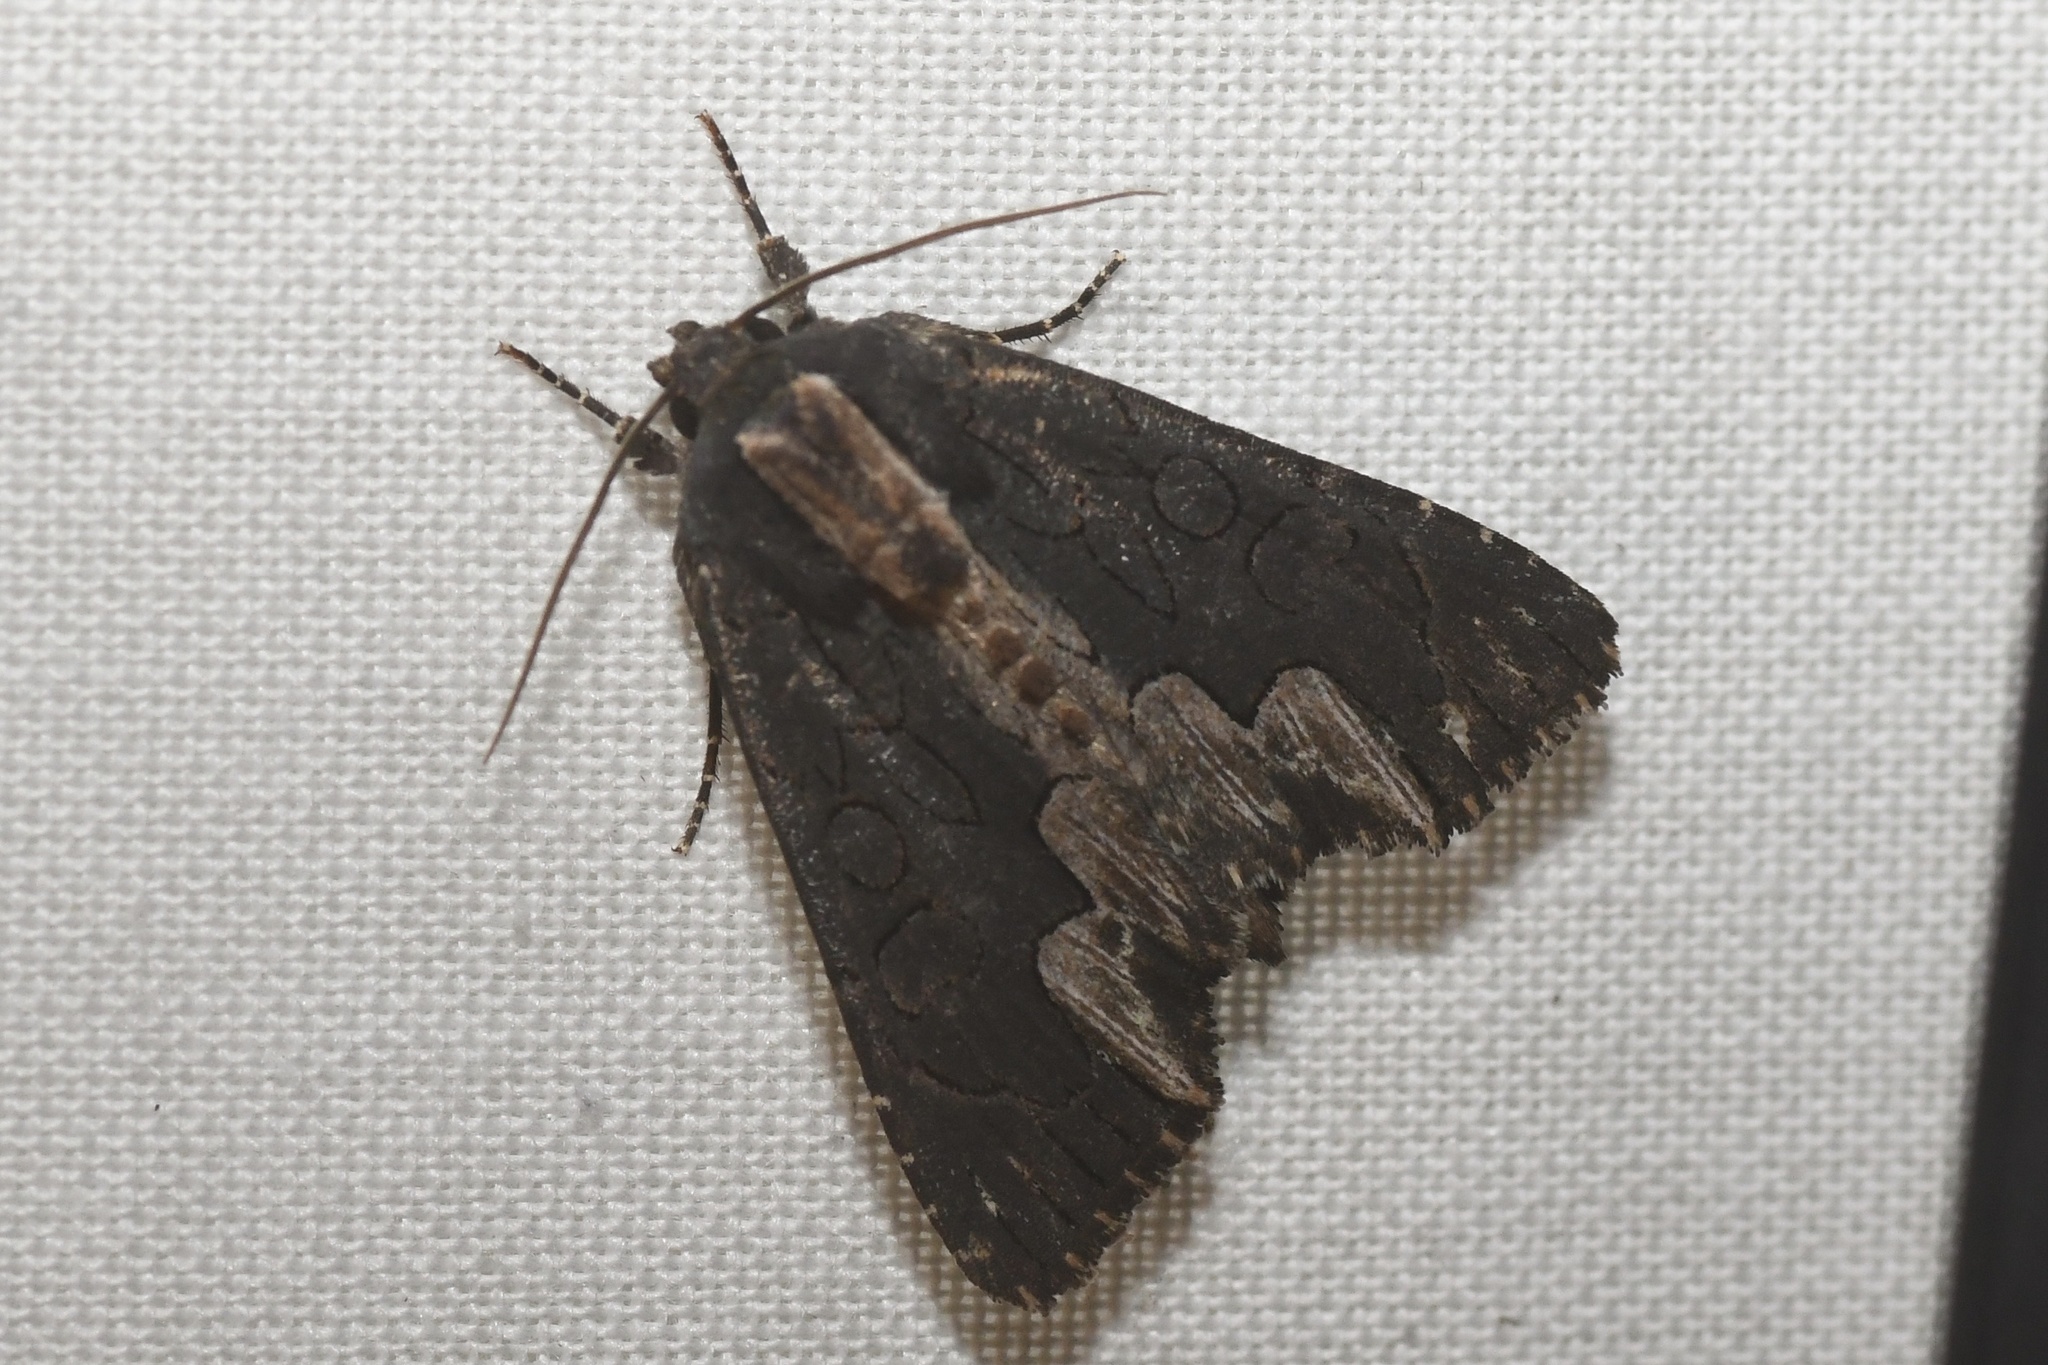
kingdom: Animalia
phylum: Arthropoda
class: Insecta
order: Lepidoptera
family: Noctuidae
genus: Dypterygia
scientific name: Dypterygia rozmani
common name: American bird's-wing
